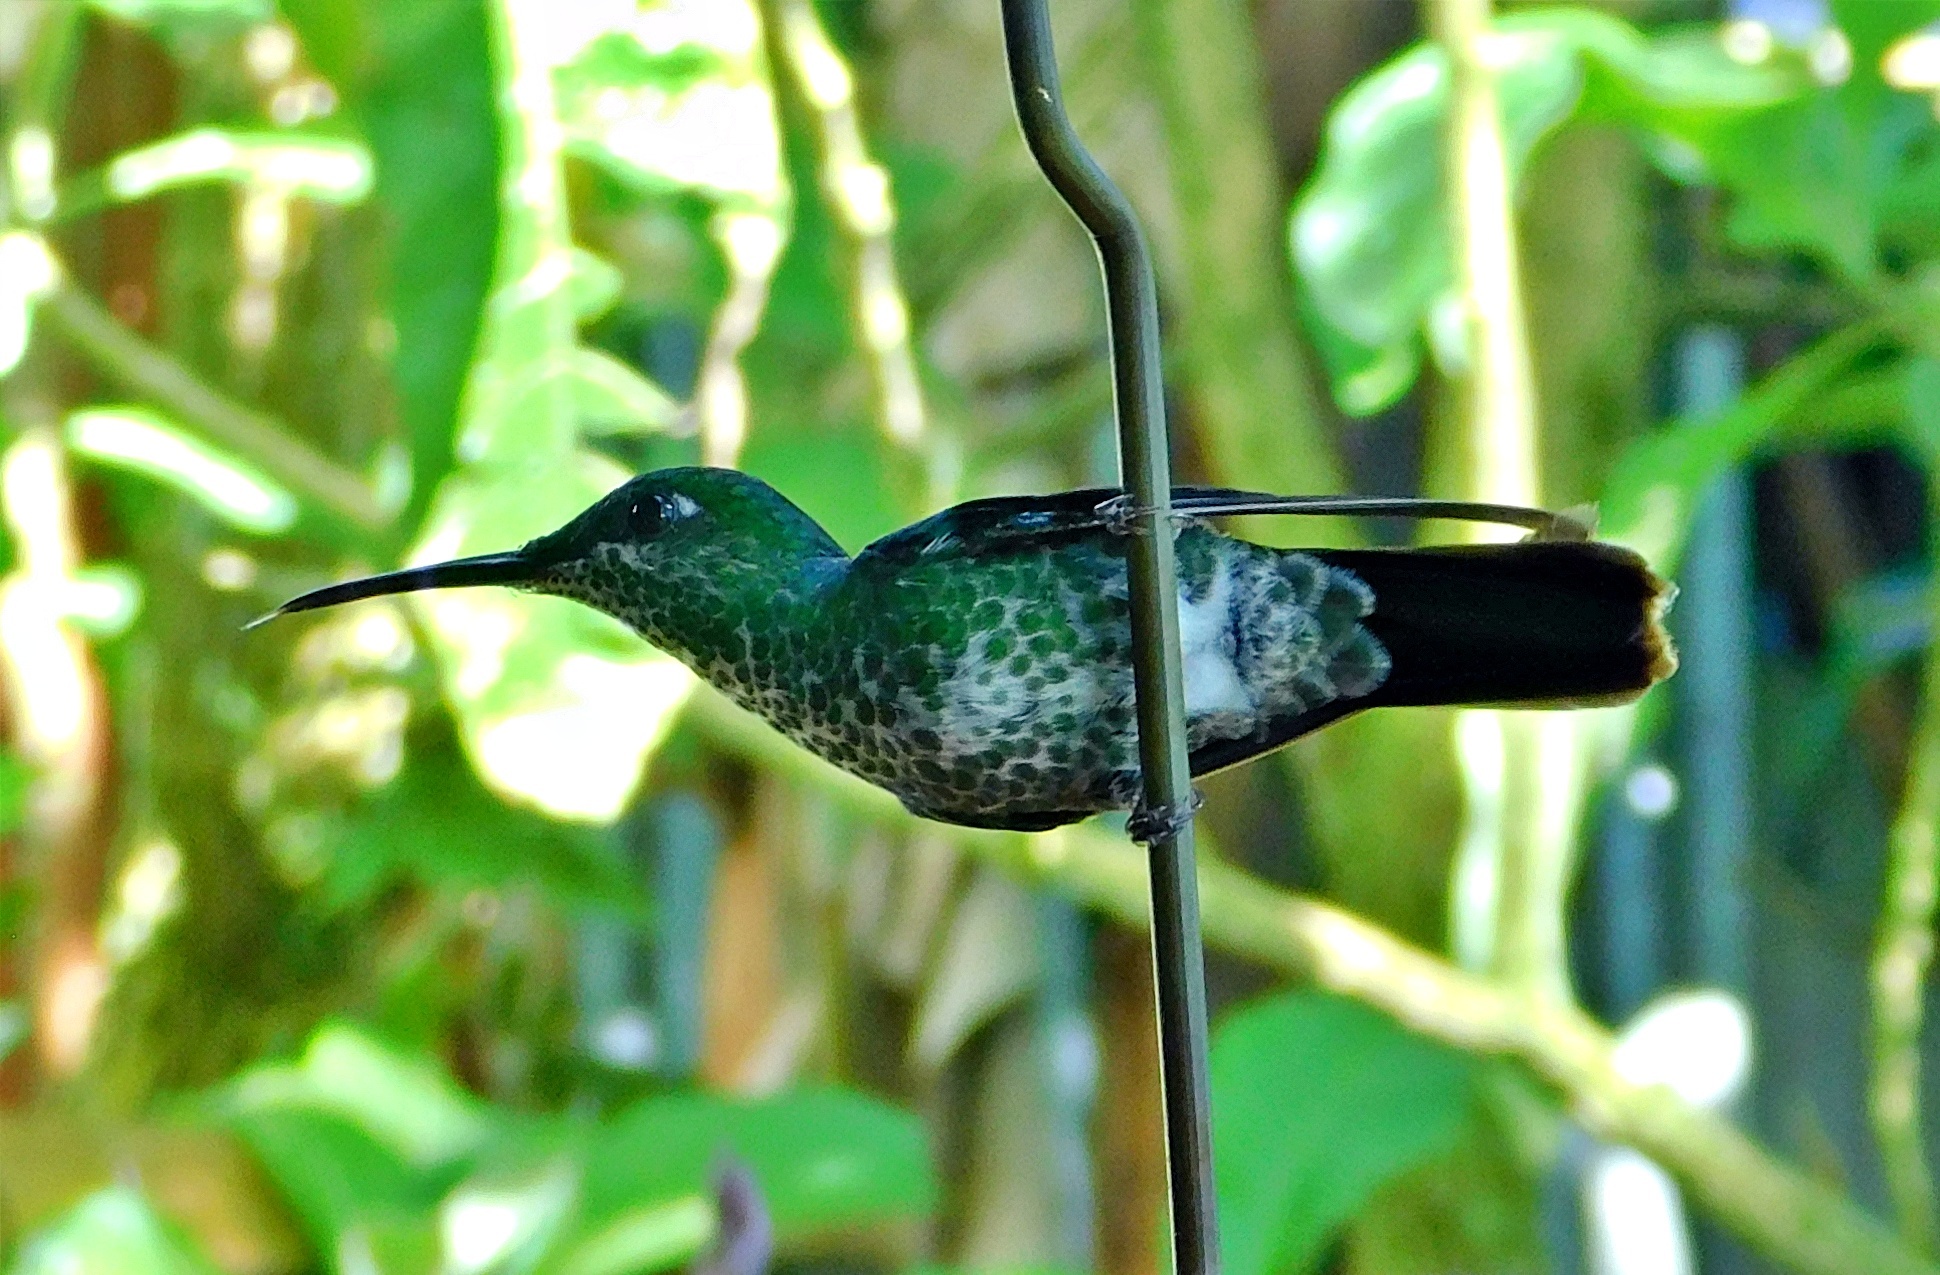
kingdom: Animalia
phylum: Chordata
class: Aves
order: Apodiformes
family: Trochilidae
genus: Heliodoxa
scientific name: Heliodoxa jacula
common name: Green-crowned brilliant
